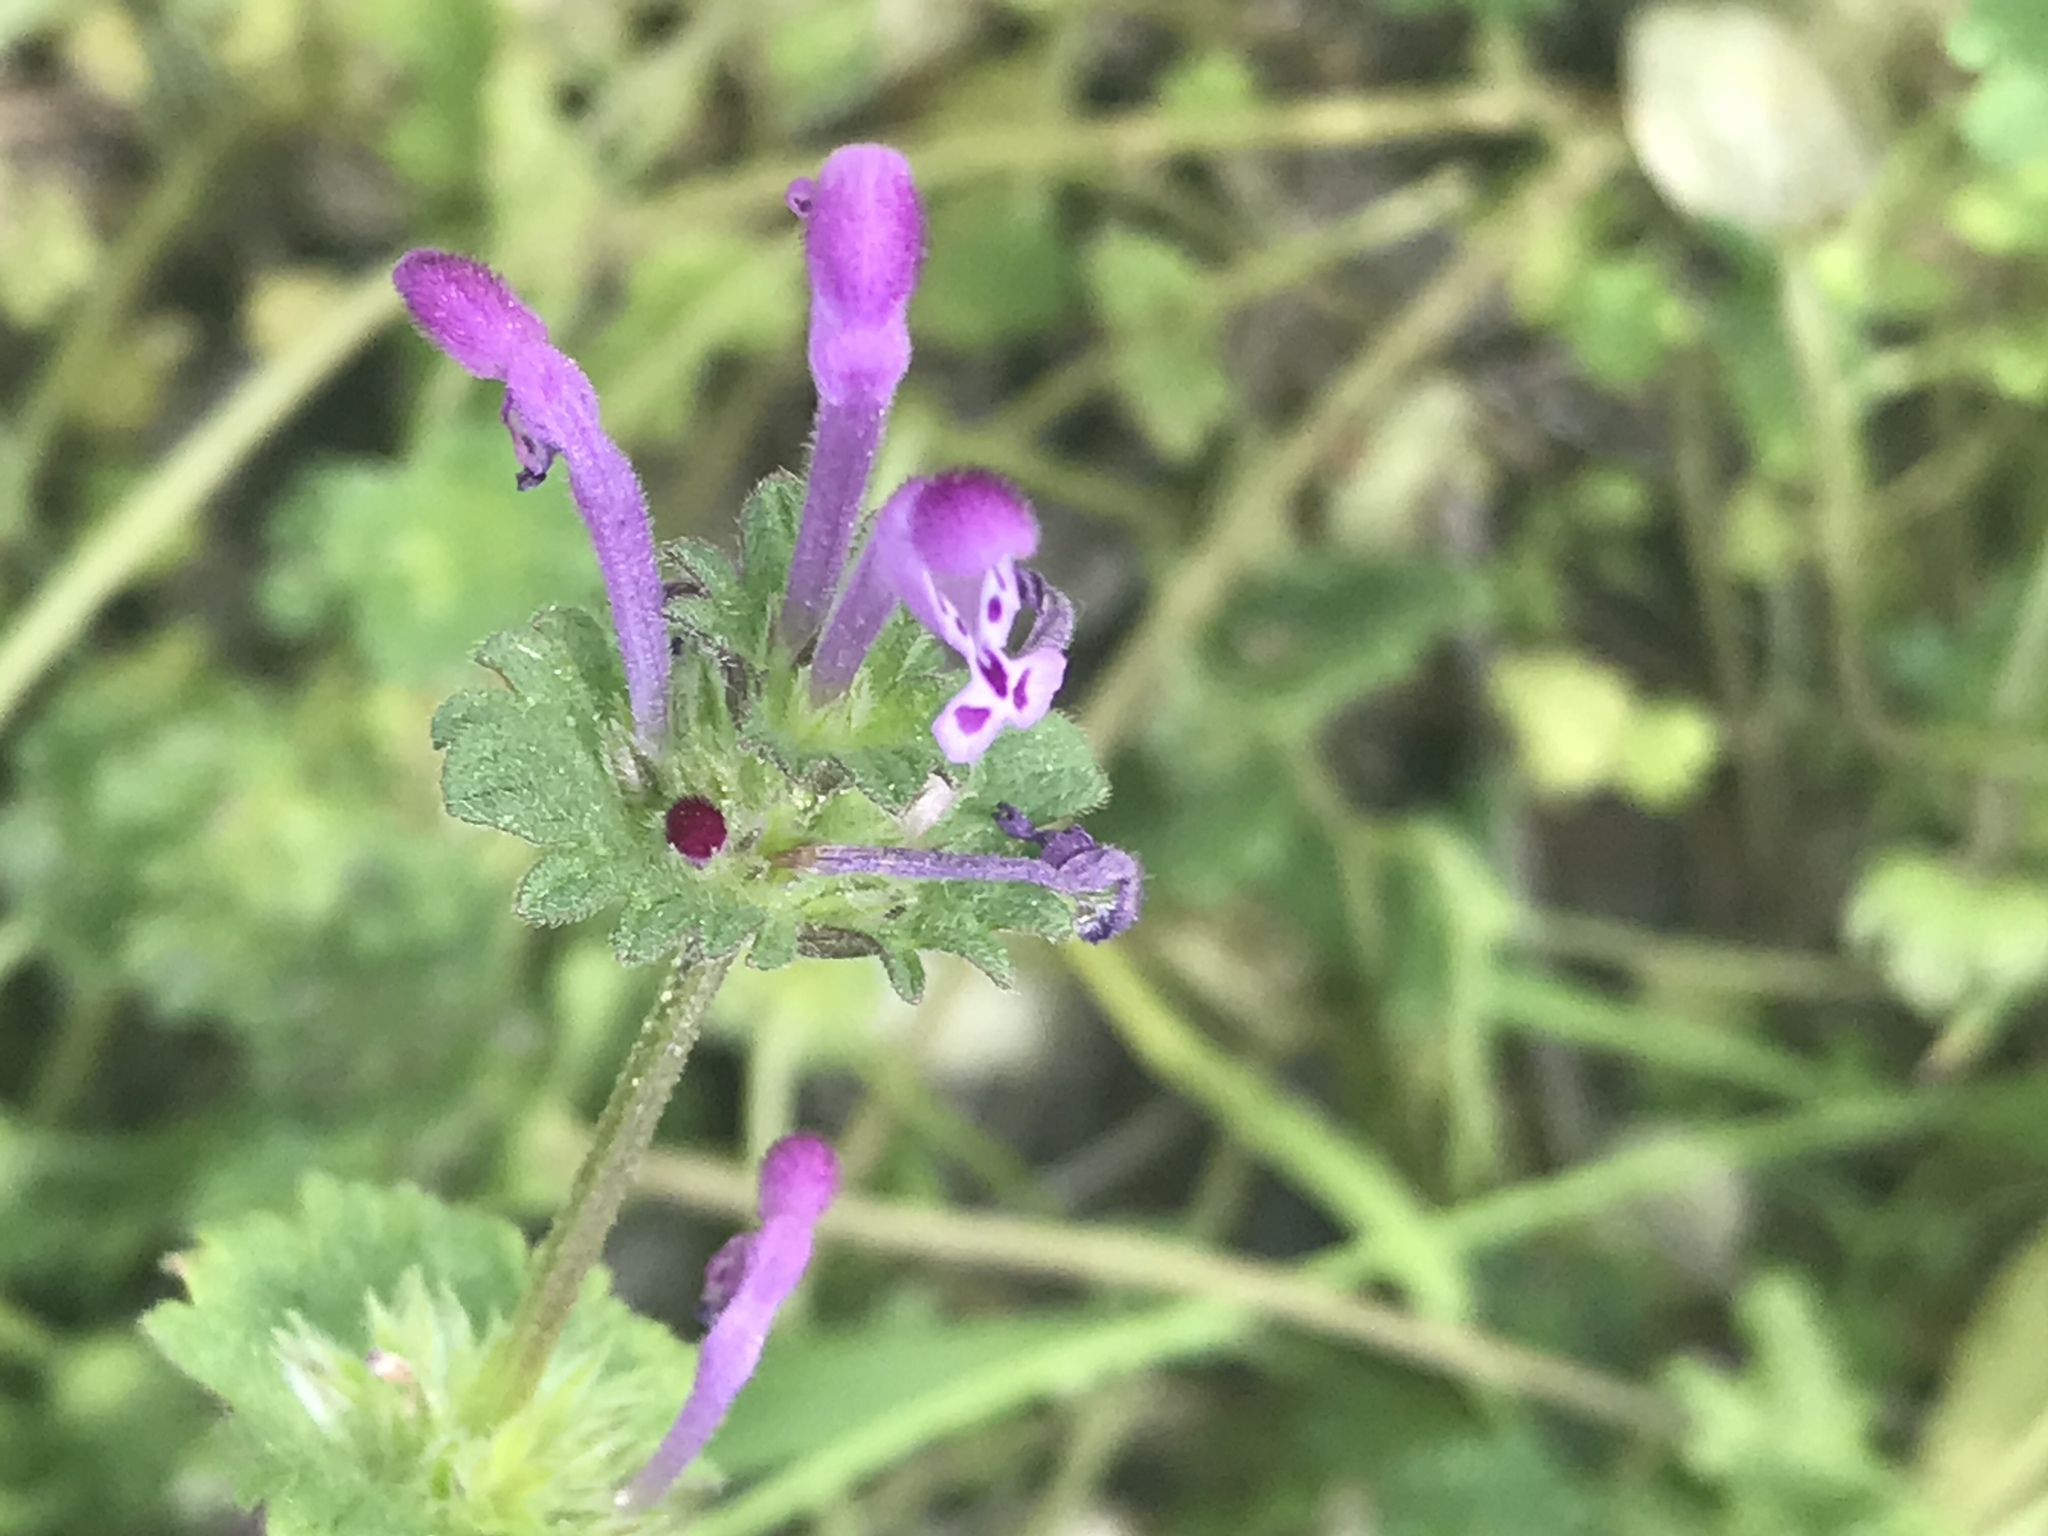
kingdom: Plantae
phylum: Tracheophyta
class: Magnoliopsida
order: Lamiales
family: Lamiaceae
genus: Lamium
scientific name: Lamium amplexicaule
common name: Henbit dead-nettle
